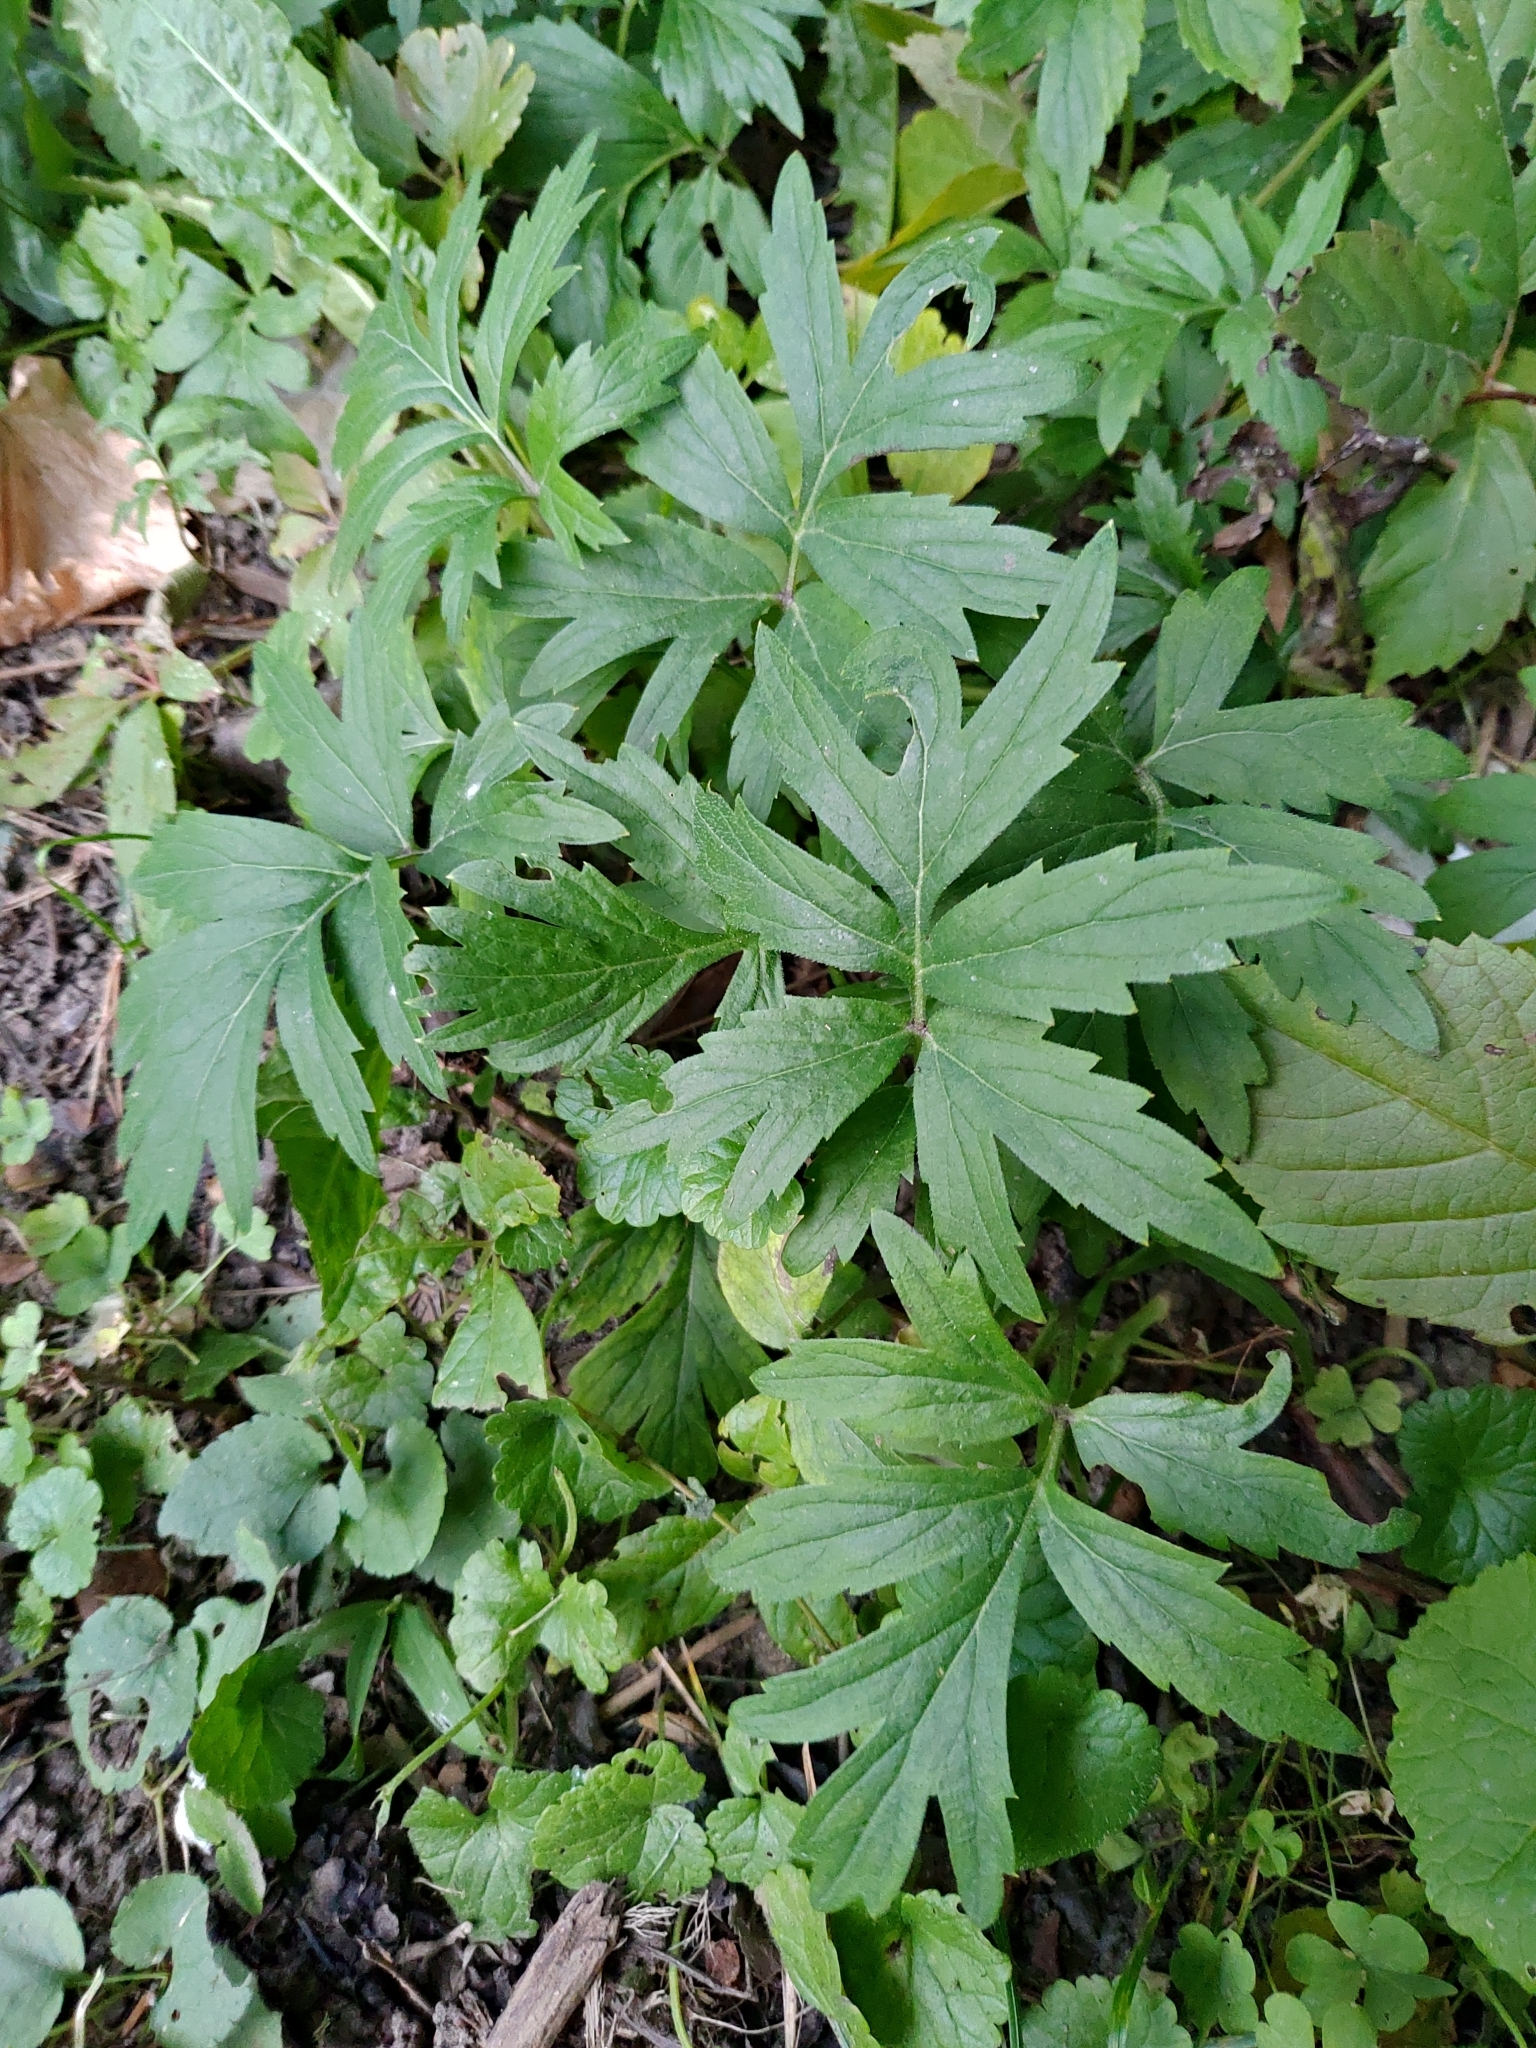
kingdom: Plantae
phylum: Tracheophyta
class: Magnoliopsida
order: Boraginales
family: Hydrophyllaceae
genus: Hydrophyllum
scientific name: Hydrophyllum virginianum
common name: Virginia waterleaf
